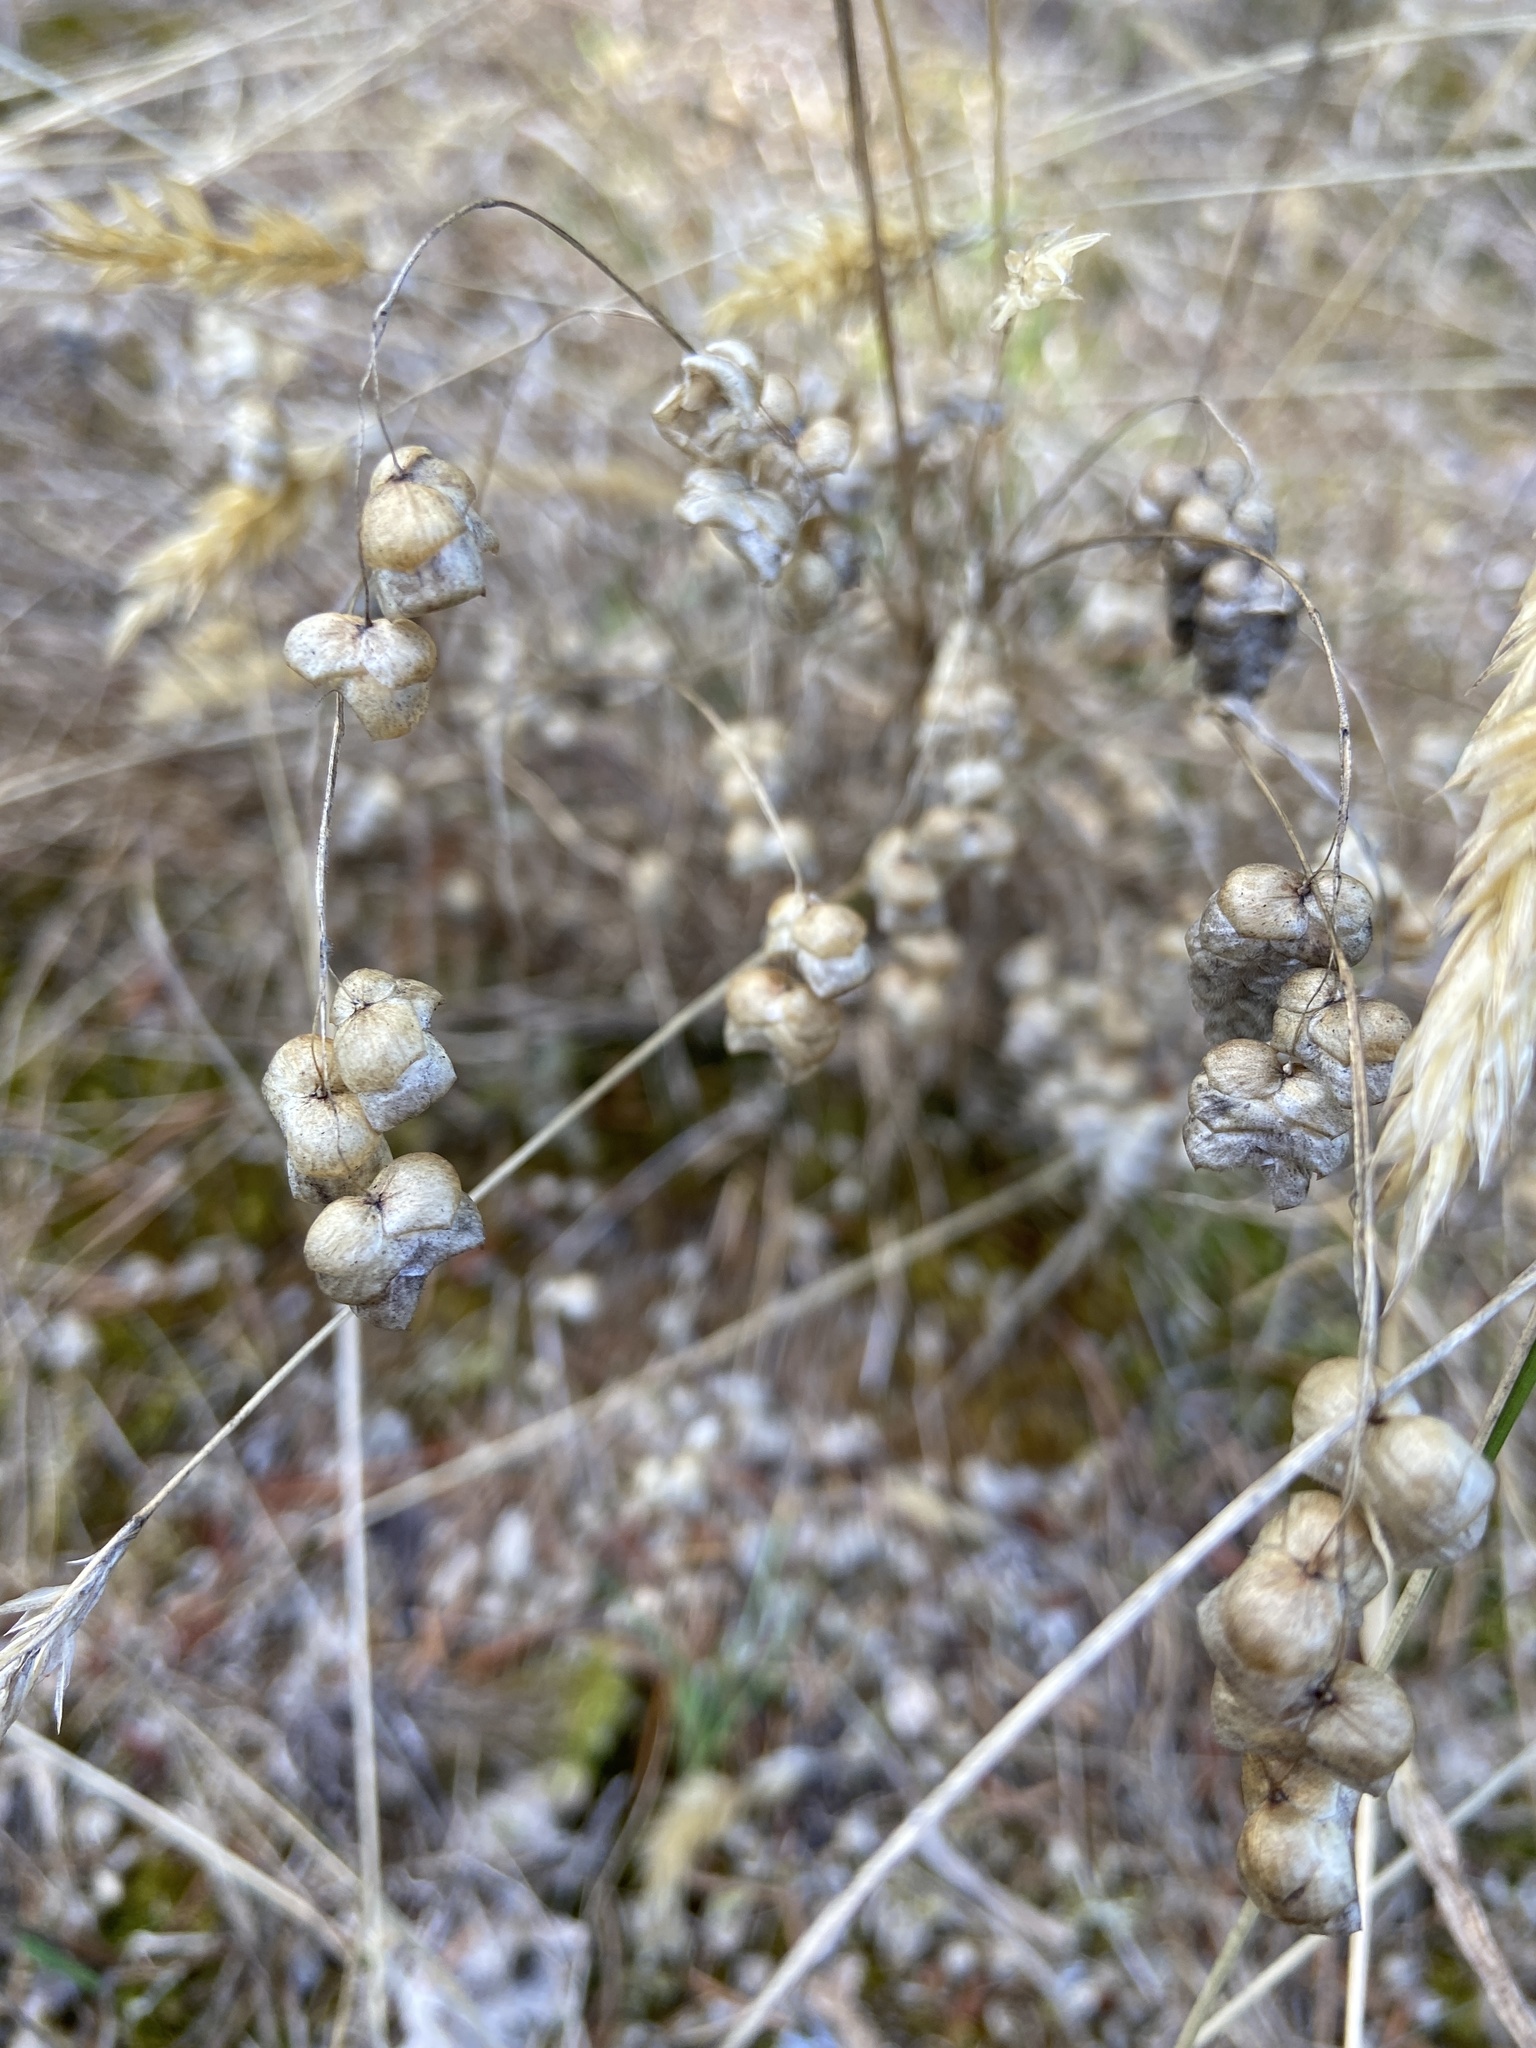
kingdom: Plantae
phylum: Tracheophyta
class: Liliopsida
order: Poales
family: Poaceae
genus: Briza
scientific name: Briza maxima
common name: Big quakinggrass
